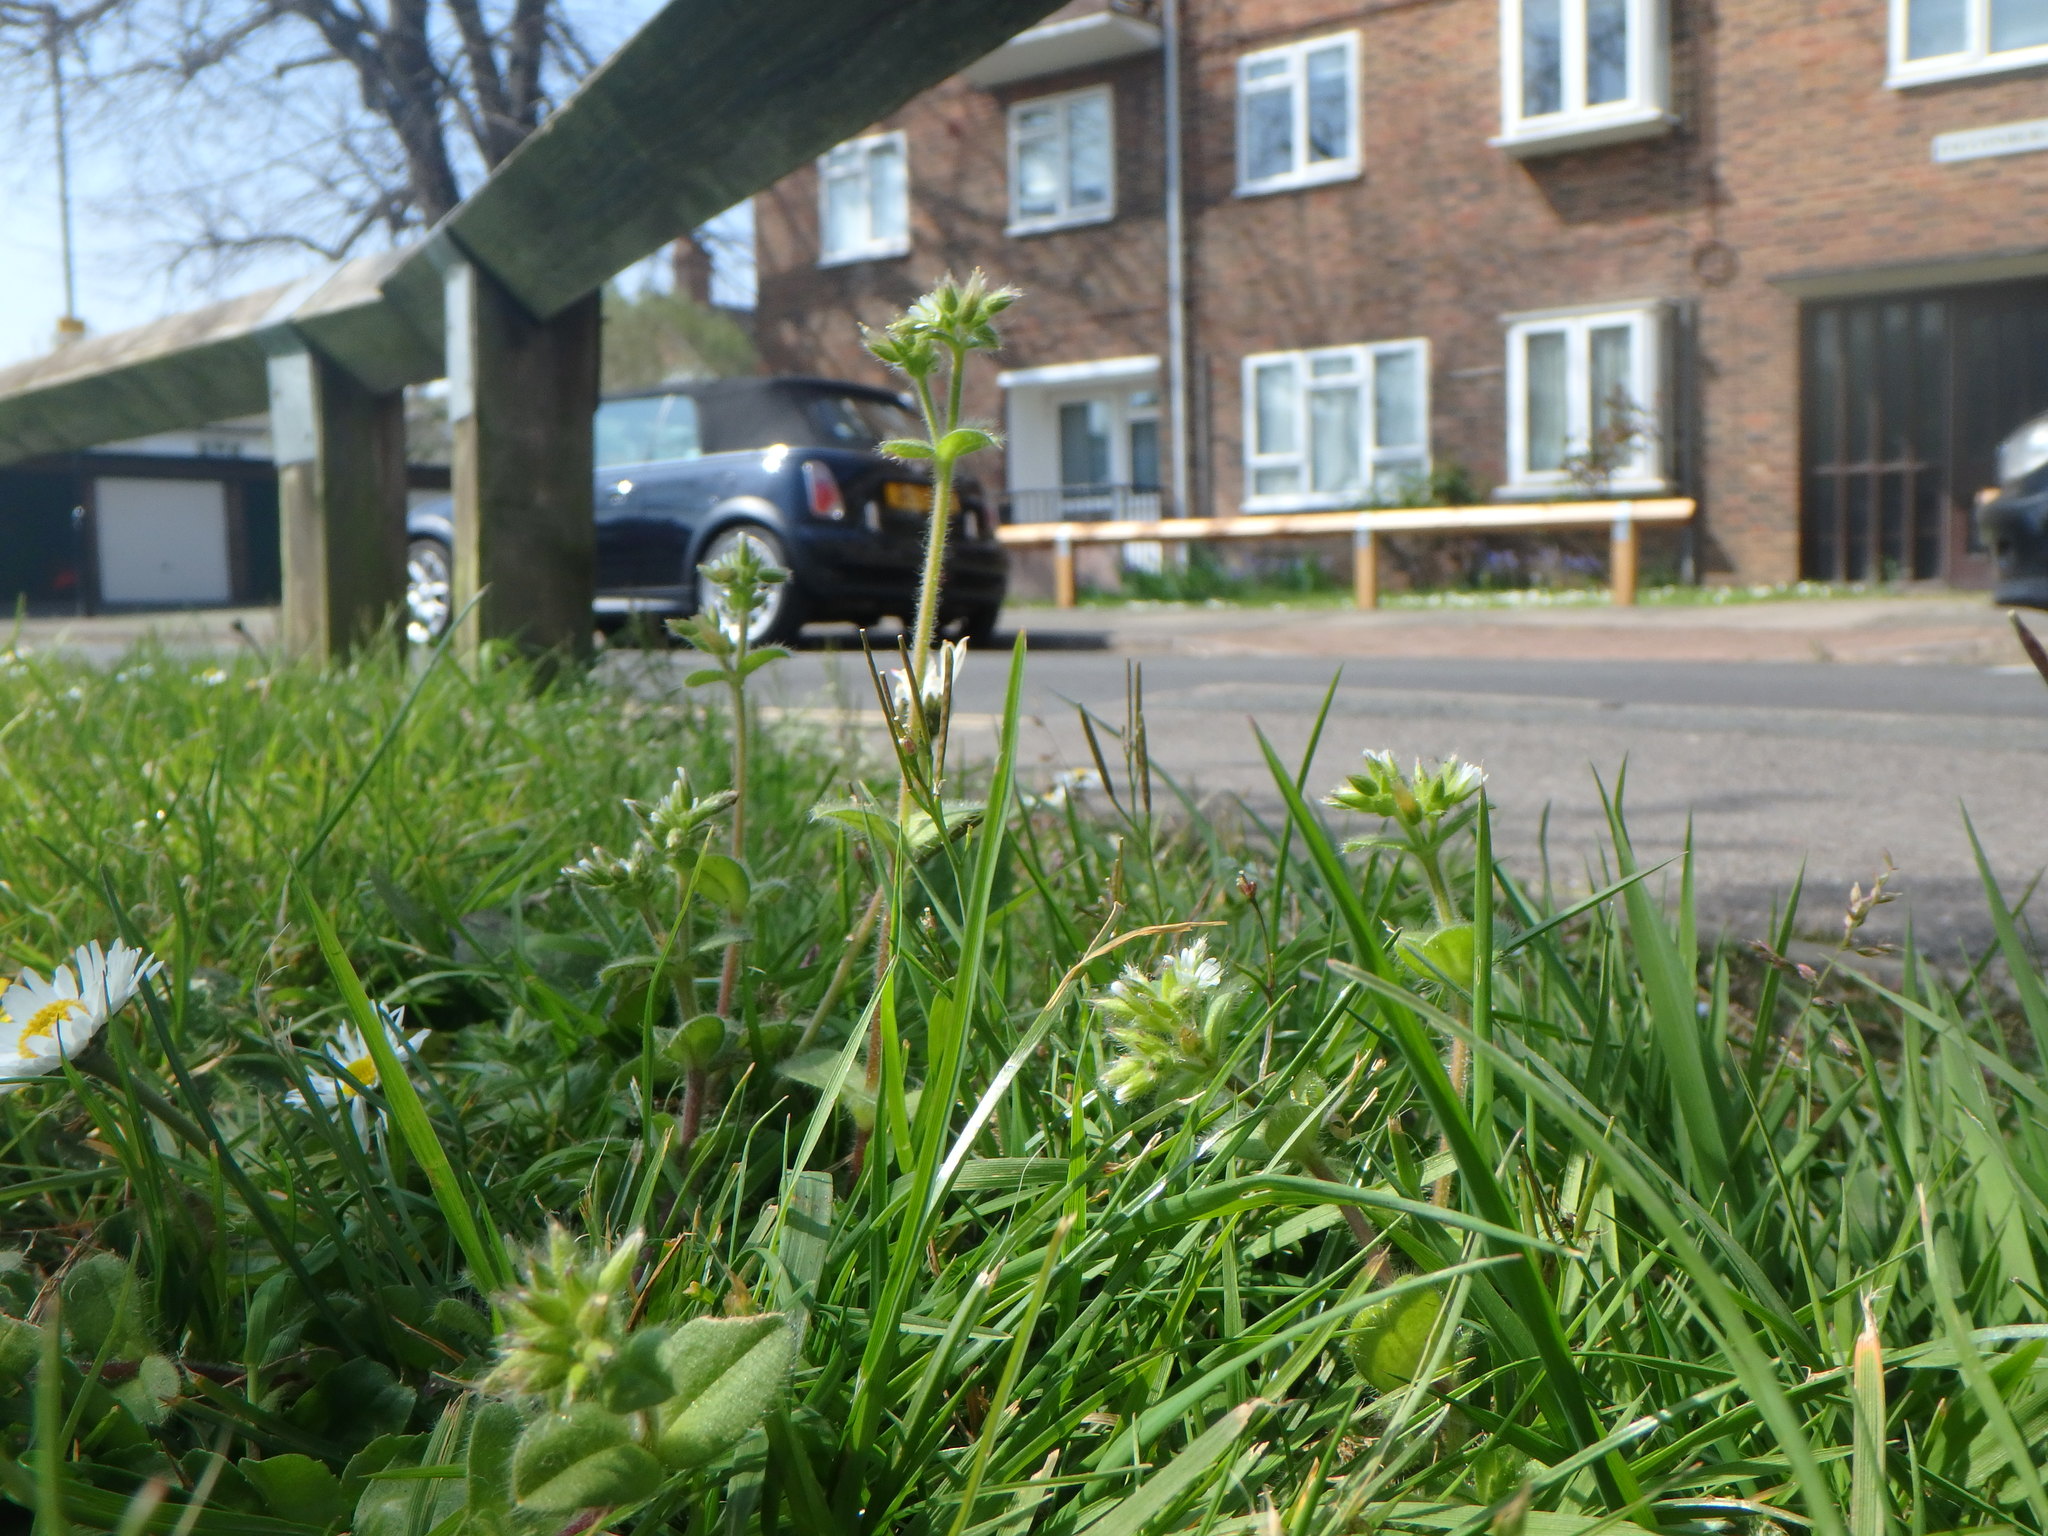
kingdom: Plantae
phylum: Tracheophyta
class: Magnoliopsida
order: Caryophyllales
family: Caryophyllaceae
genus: Cerastium
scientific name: Cerastium fontanum
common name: Common mouse-ear
